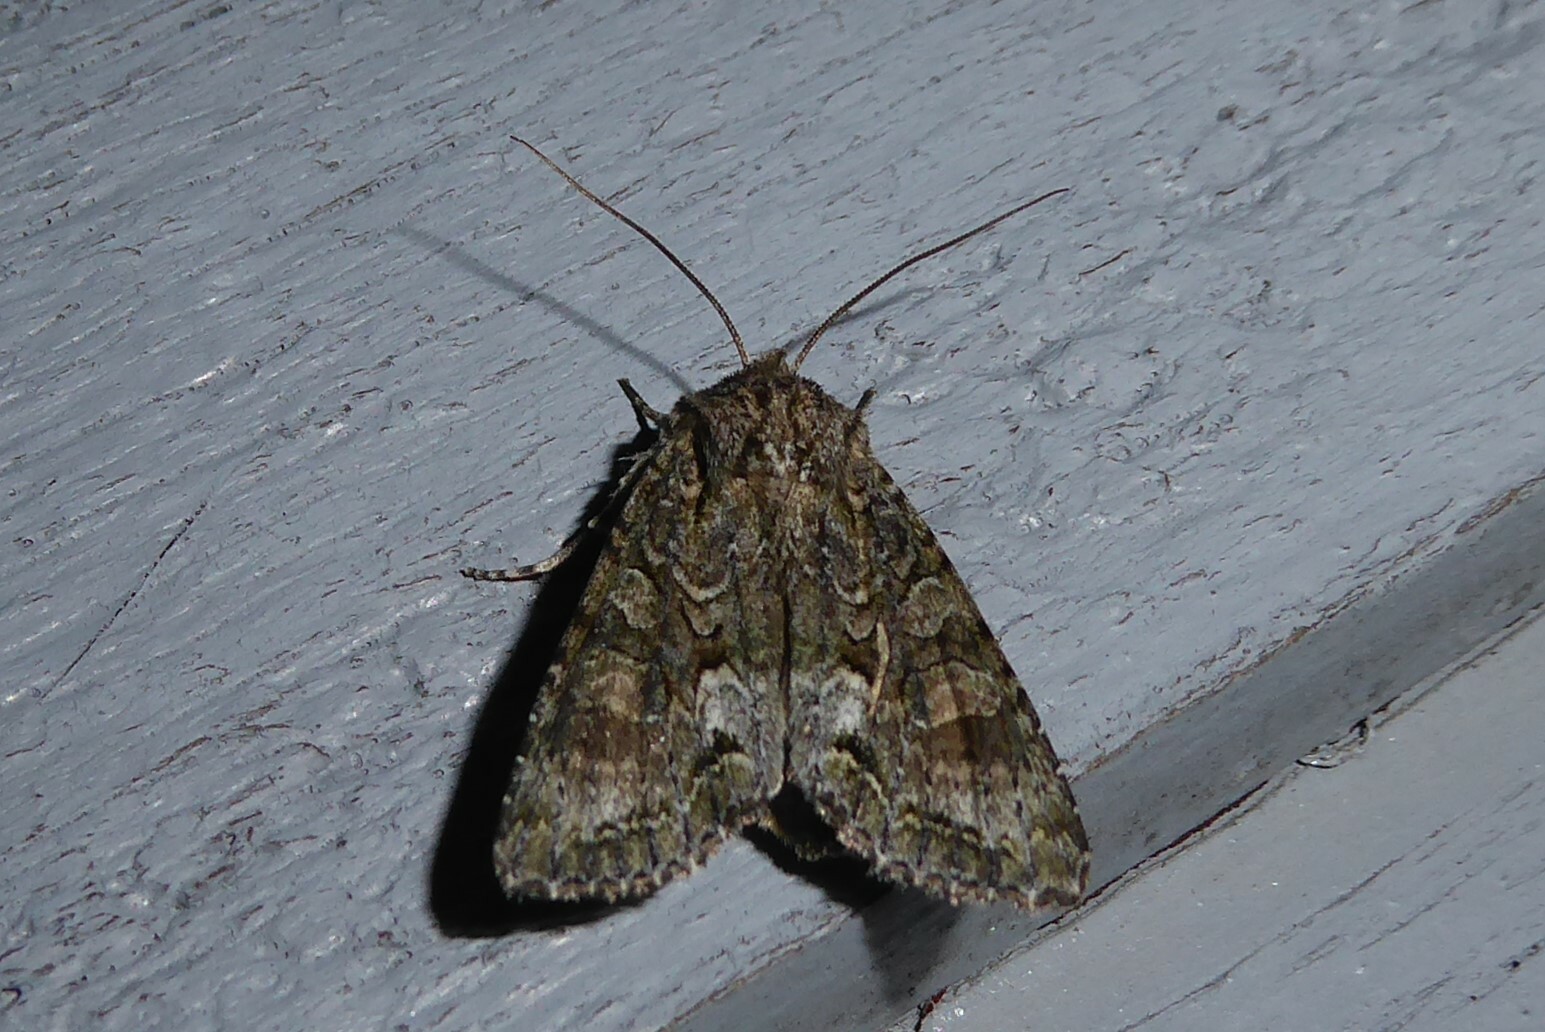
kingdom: Animalia
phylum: Arthropoda
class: Insecta
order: Lepidoptera
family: Noctuidae
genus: Ichneutica
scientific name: Ichneutica mutans
